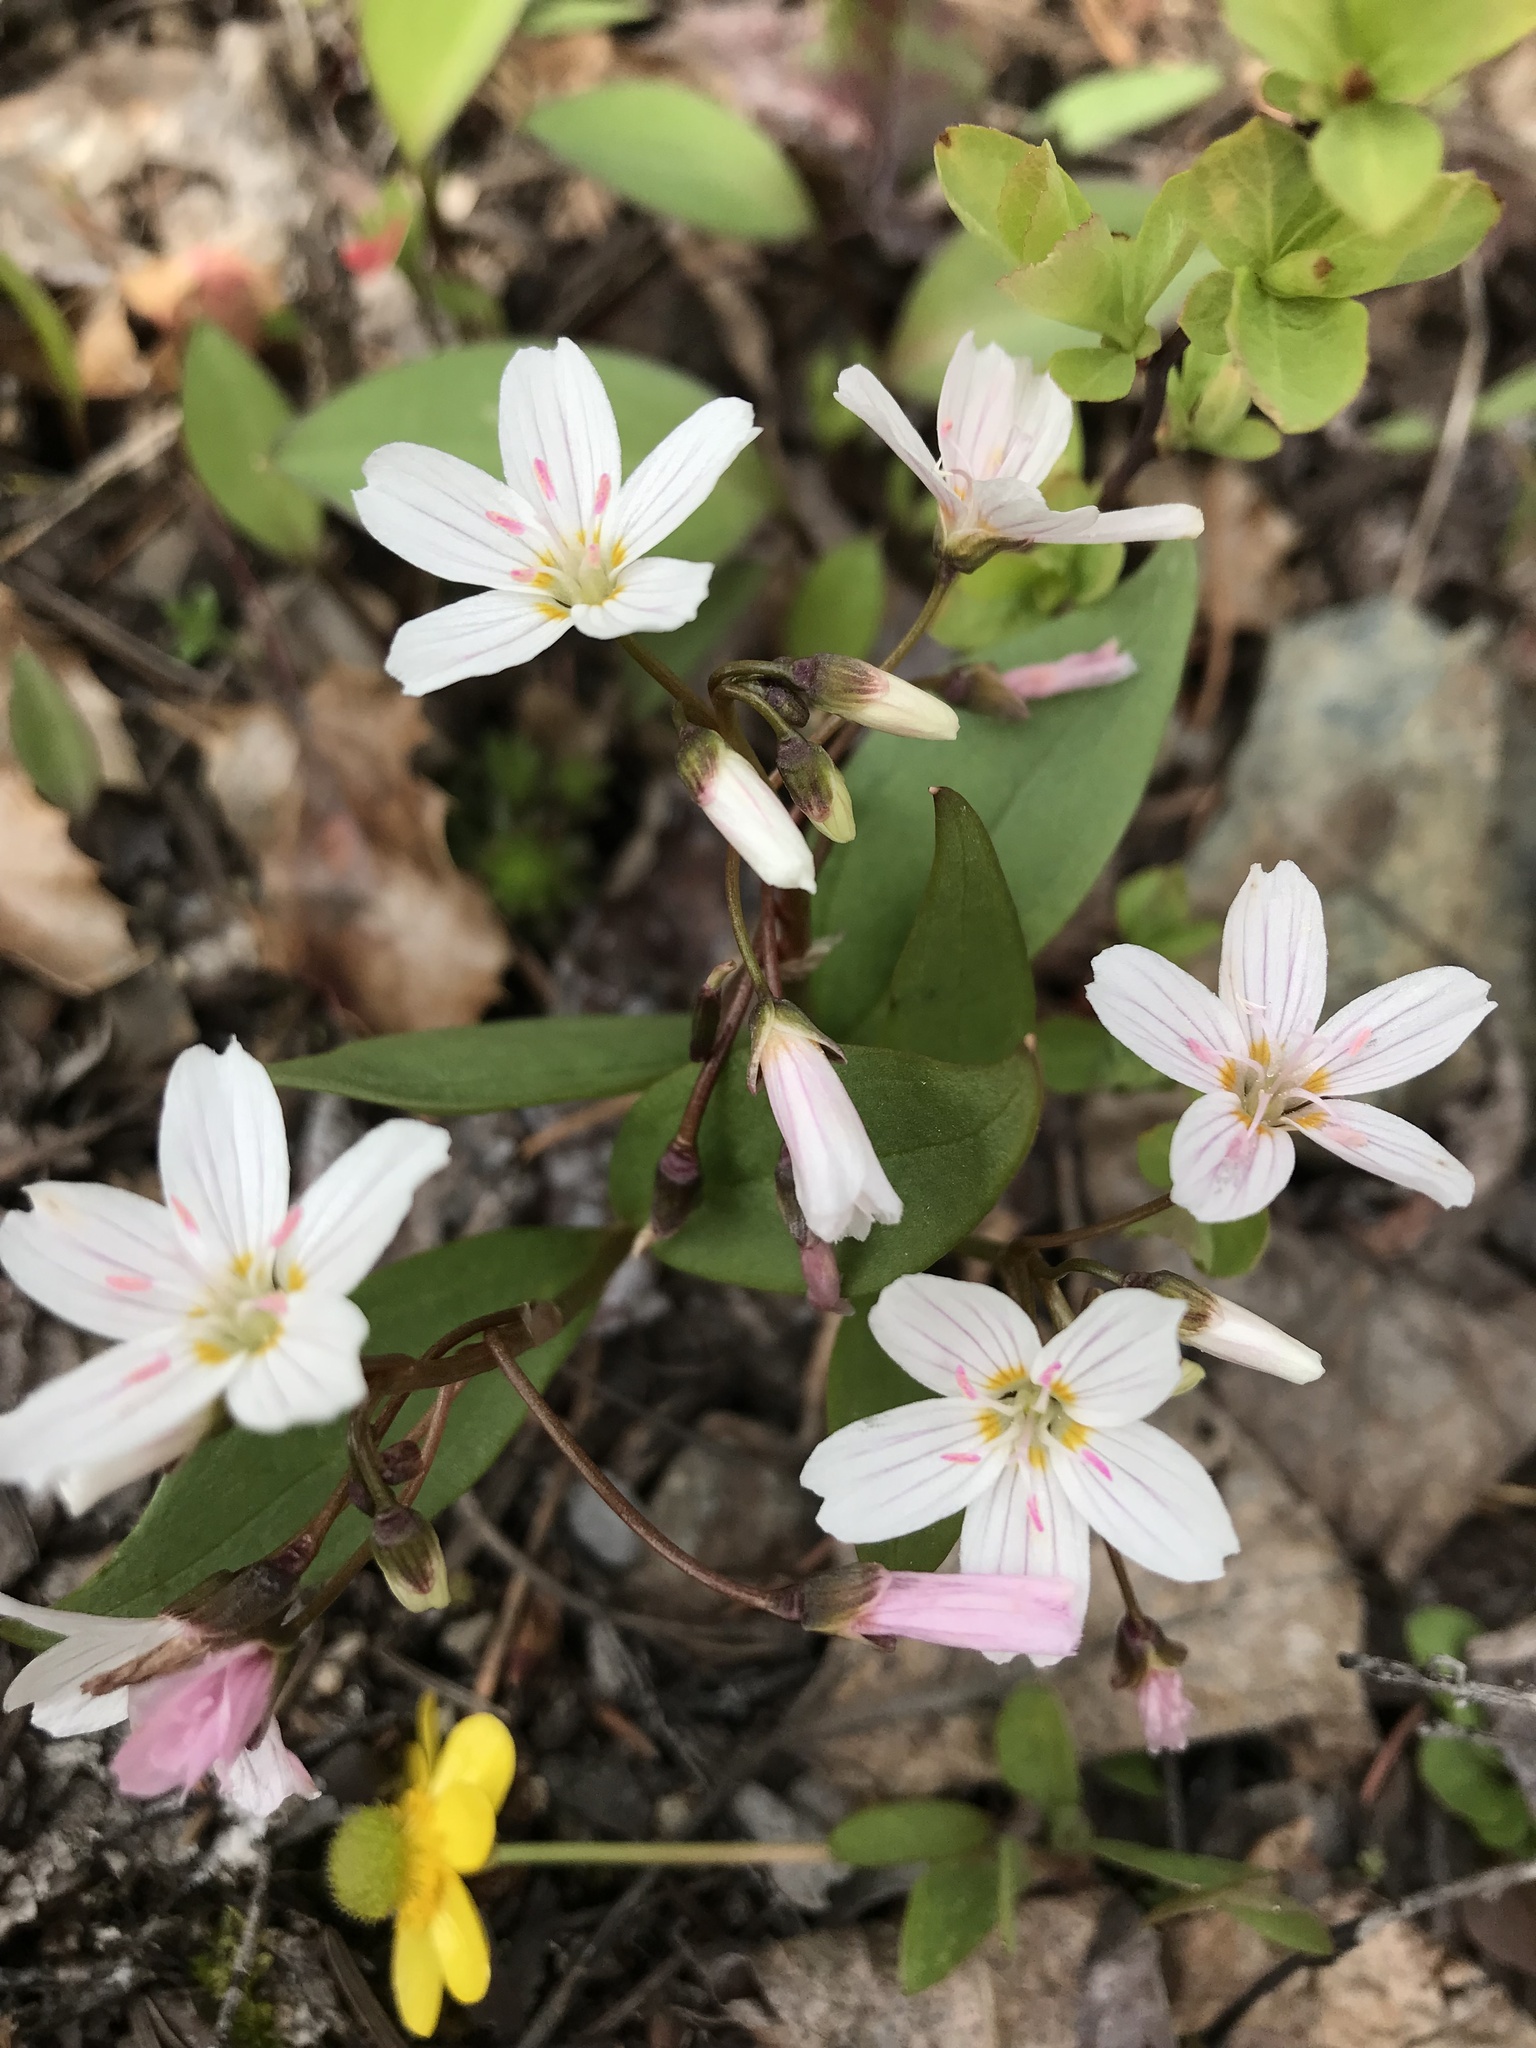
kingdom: Plantae
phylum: Tracheophyta
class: Magnoliopsida
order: Caryophyllales
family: Montiaceae
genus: Claytonia
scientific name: Claytonia lanceolata
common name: Western spring-beauty
